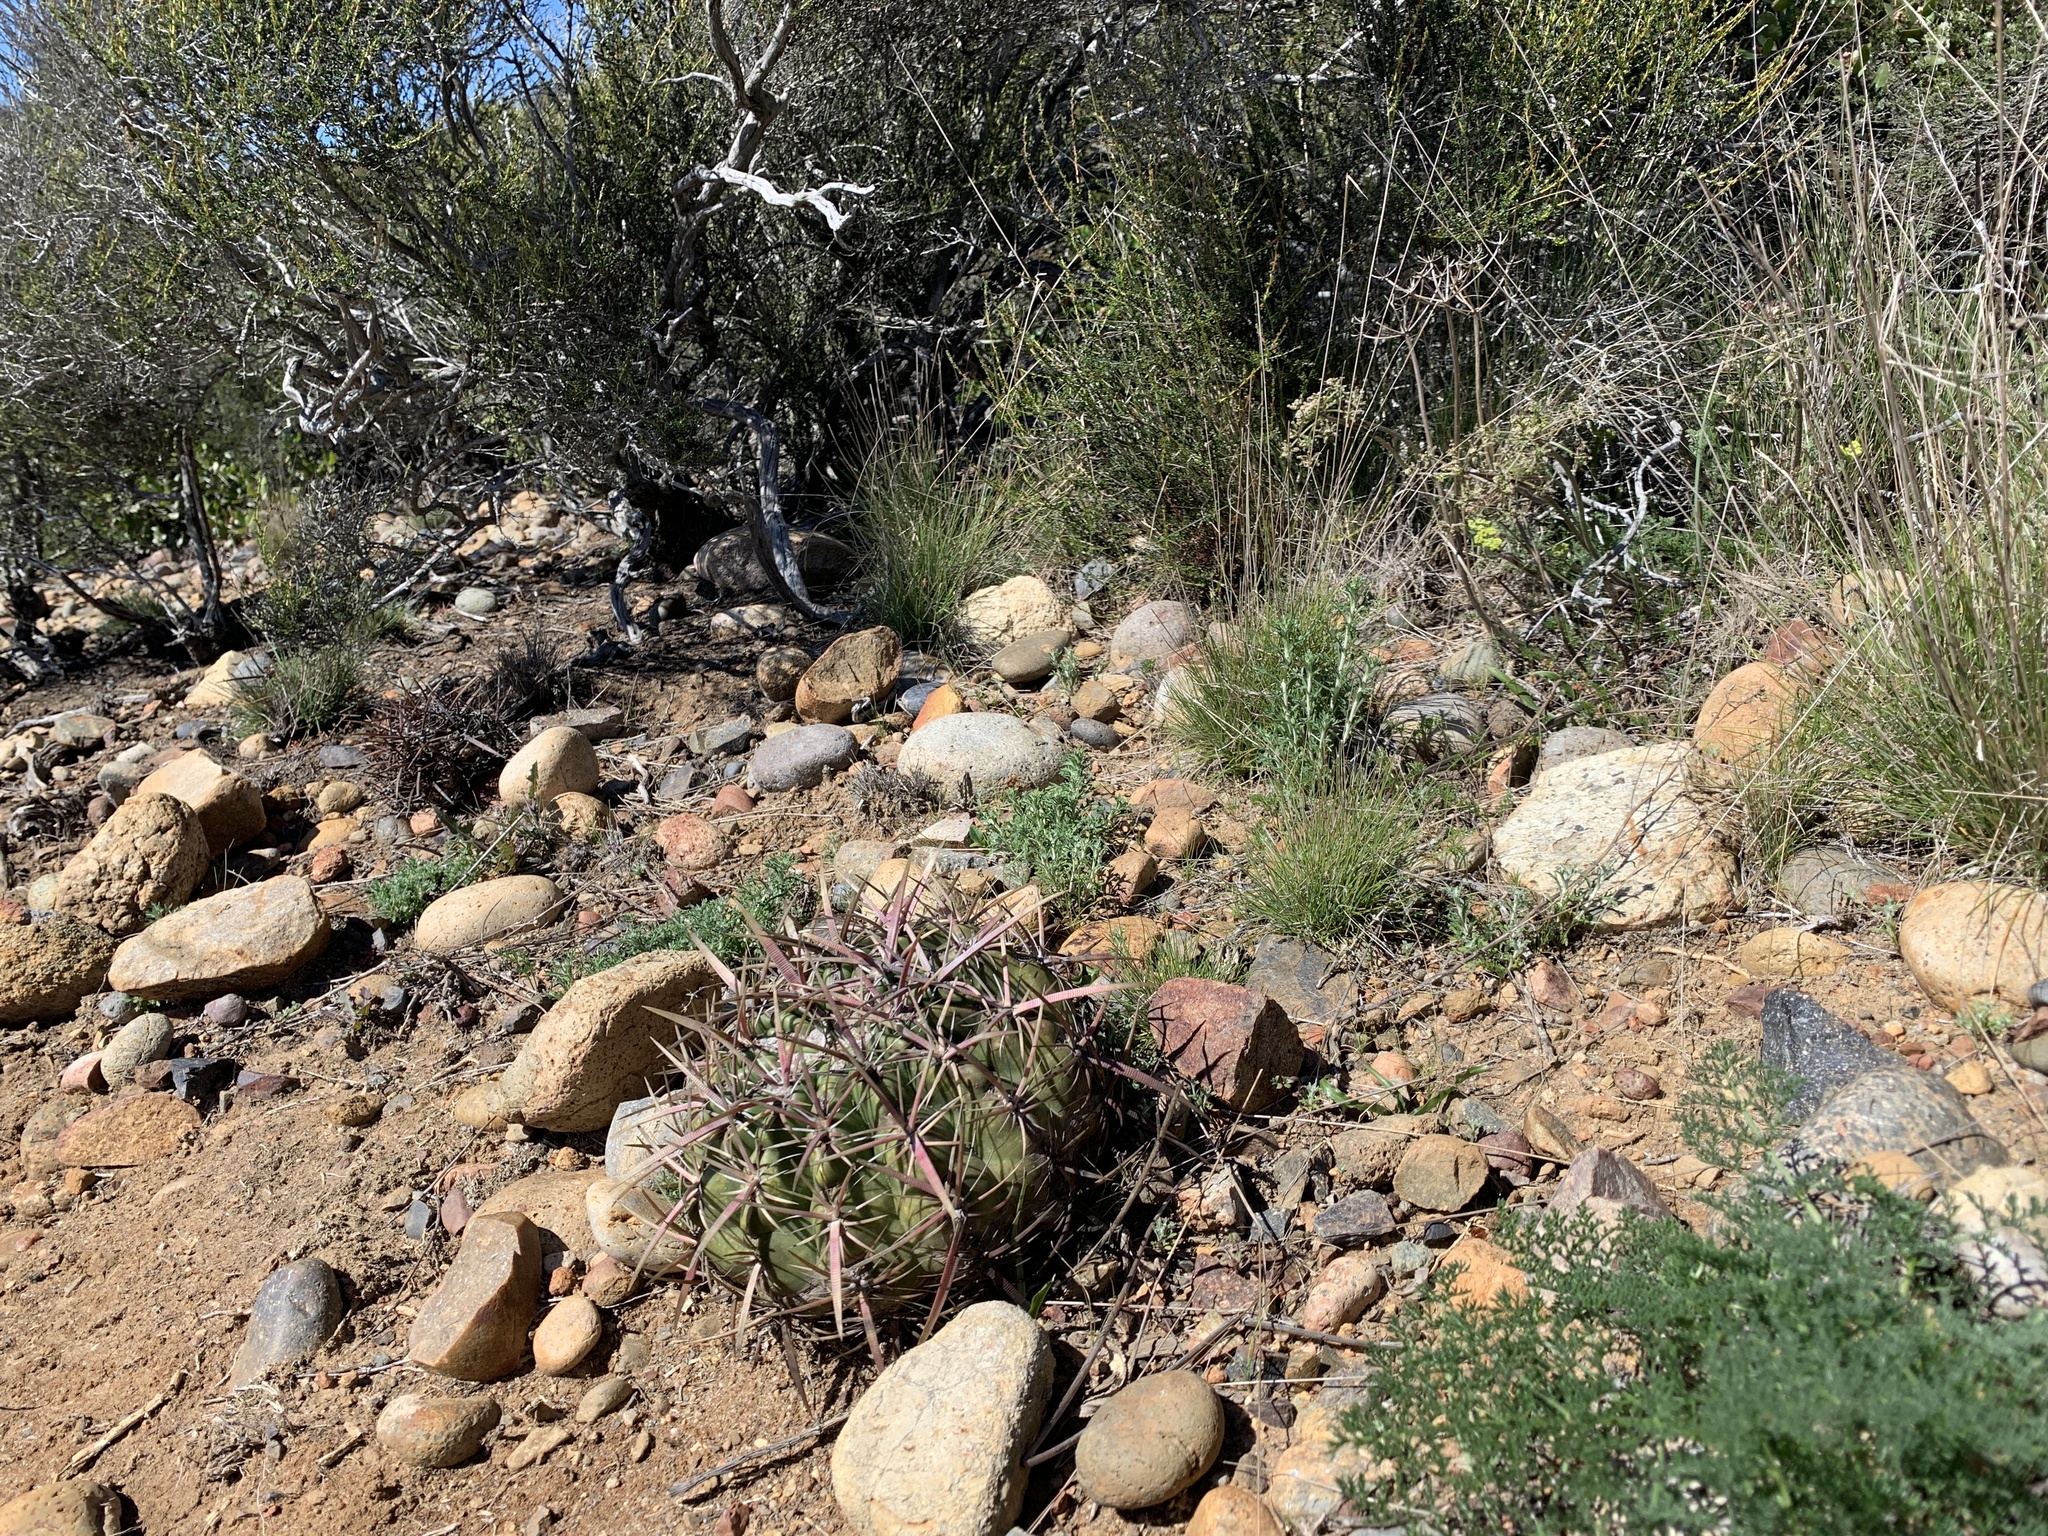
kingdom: Plantae
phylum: Tracheophyta
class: Magnoliopsida
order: Caryophyllales
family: Cactaceae
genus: Ferocactus
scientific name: Ferocactus viridescens
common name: San diego barrel cactus
